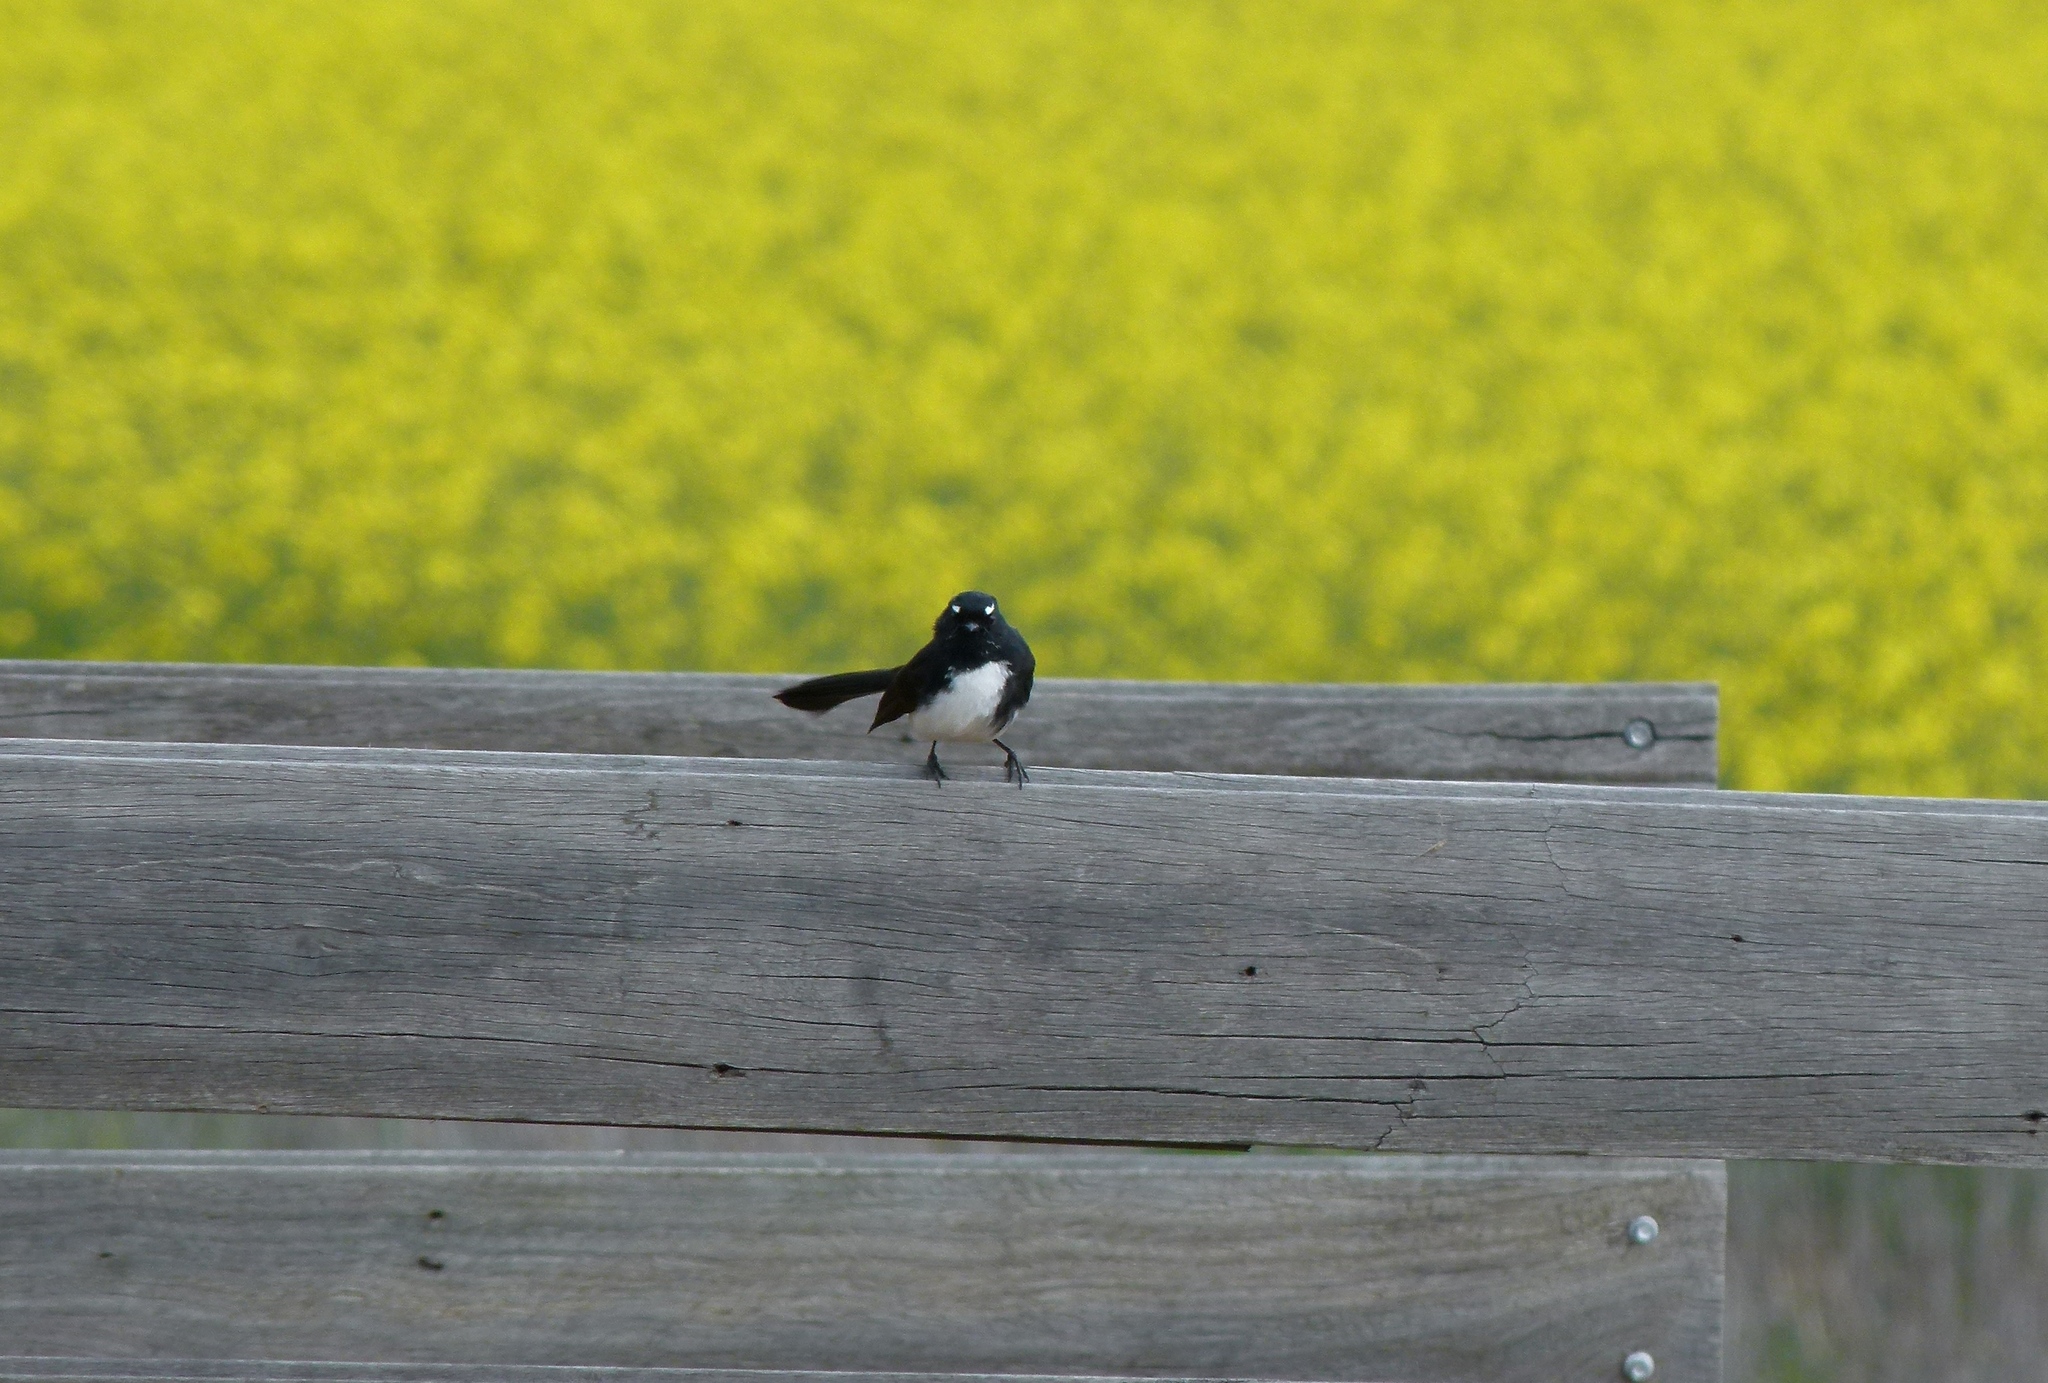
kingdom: Animalia
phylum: Chordata
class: Aves
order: Passeriformes
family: Rhipiduridae
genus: Rhipidura
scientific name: Rhipidura leucophrys
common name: Willie wagtail
